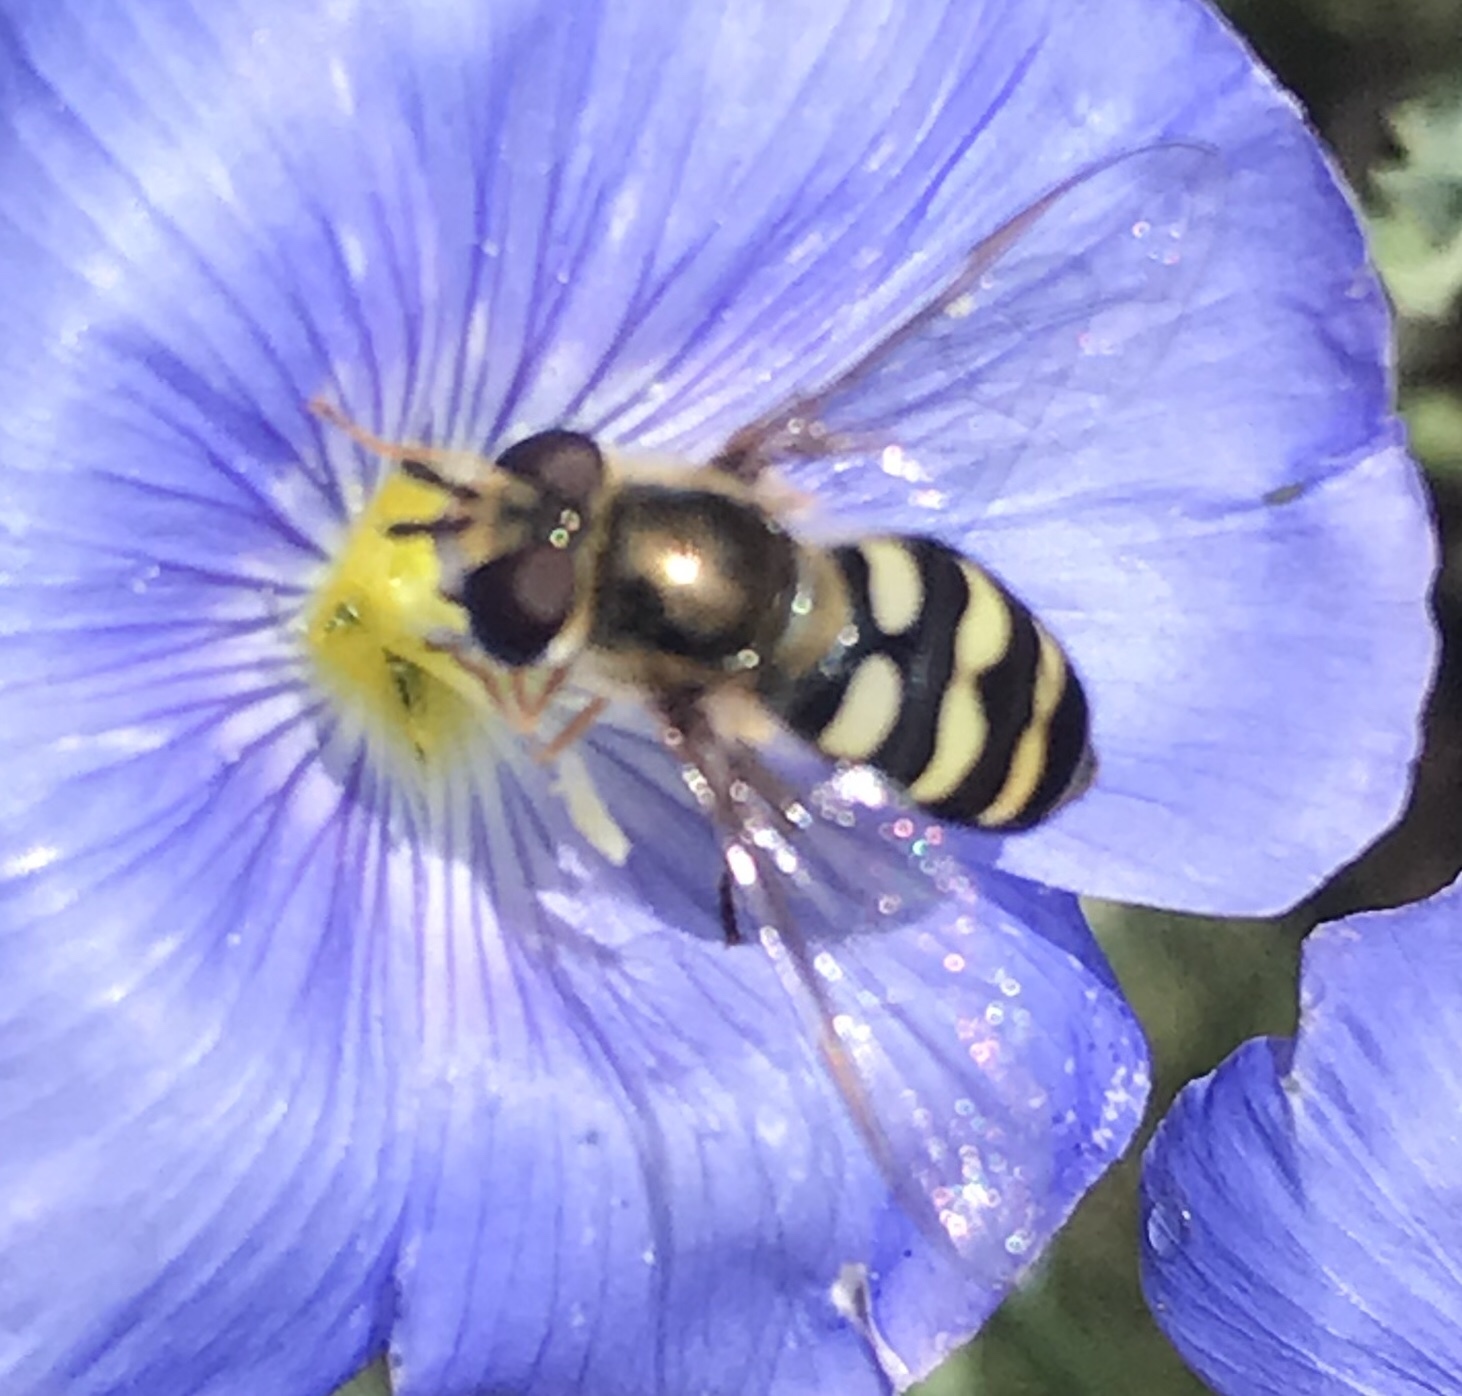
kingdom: Animalia
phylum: Arthropoda
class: Insecta
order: Diptera
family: Syrphidae
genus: Eupeodes
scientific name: Eupeodes fumipennis
